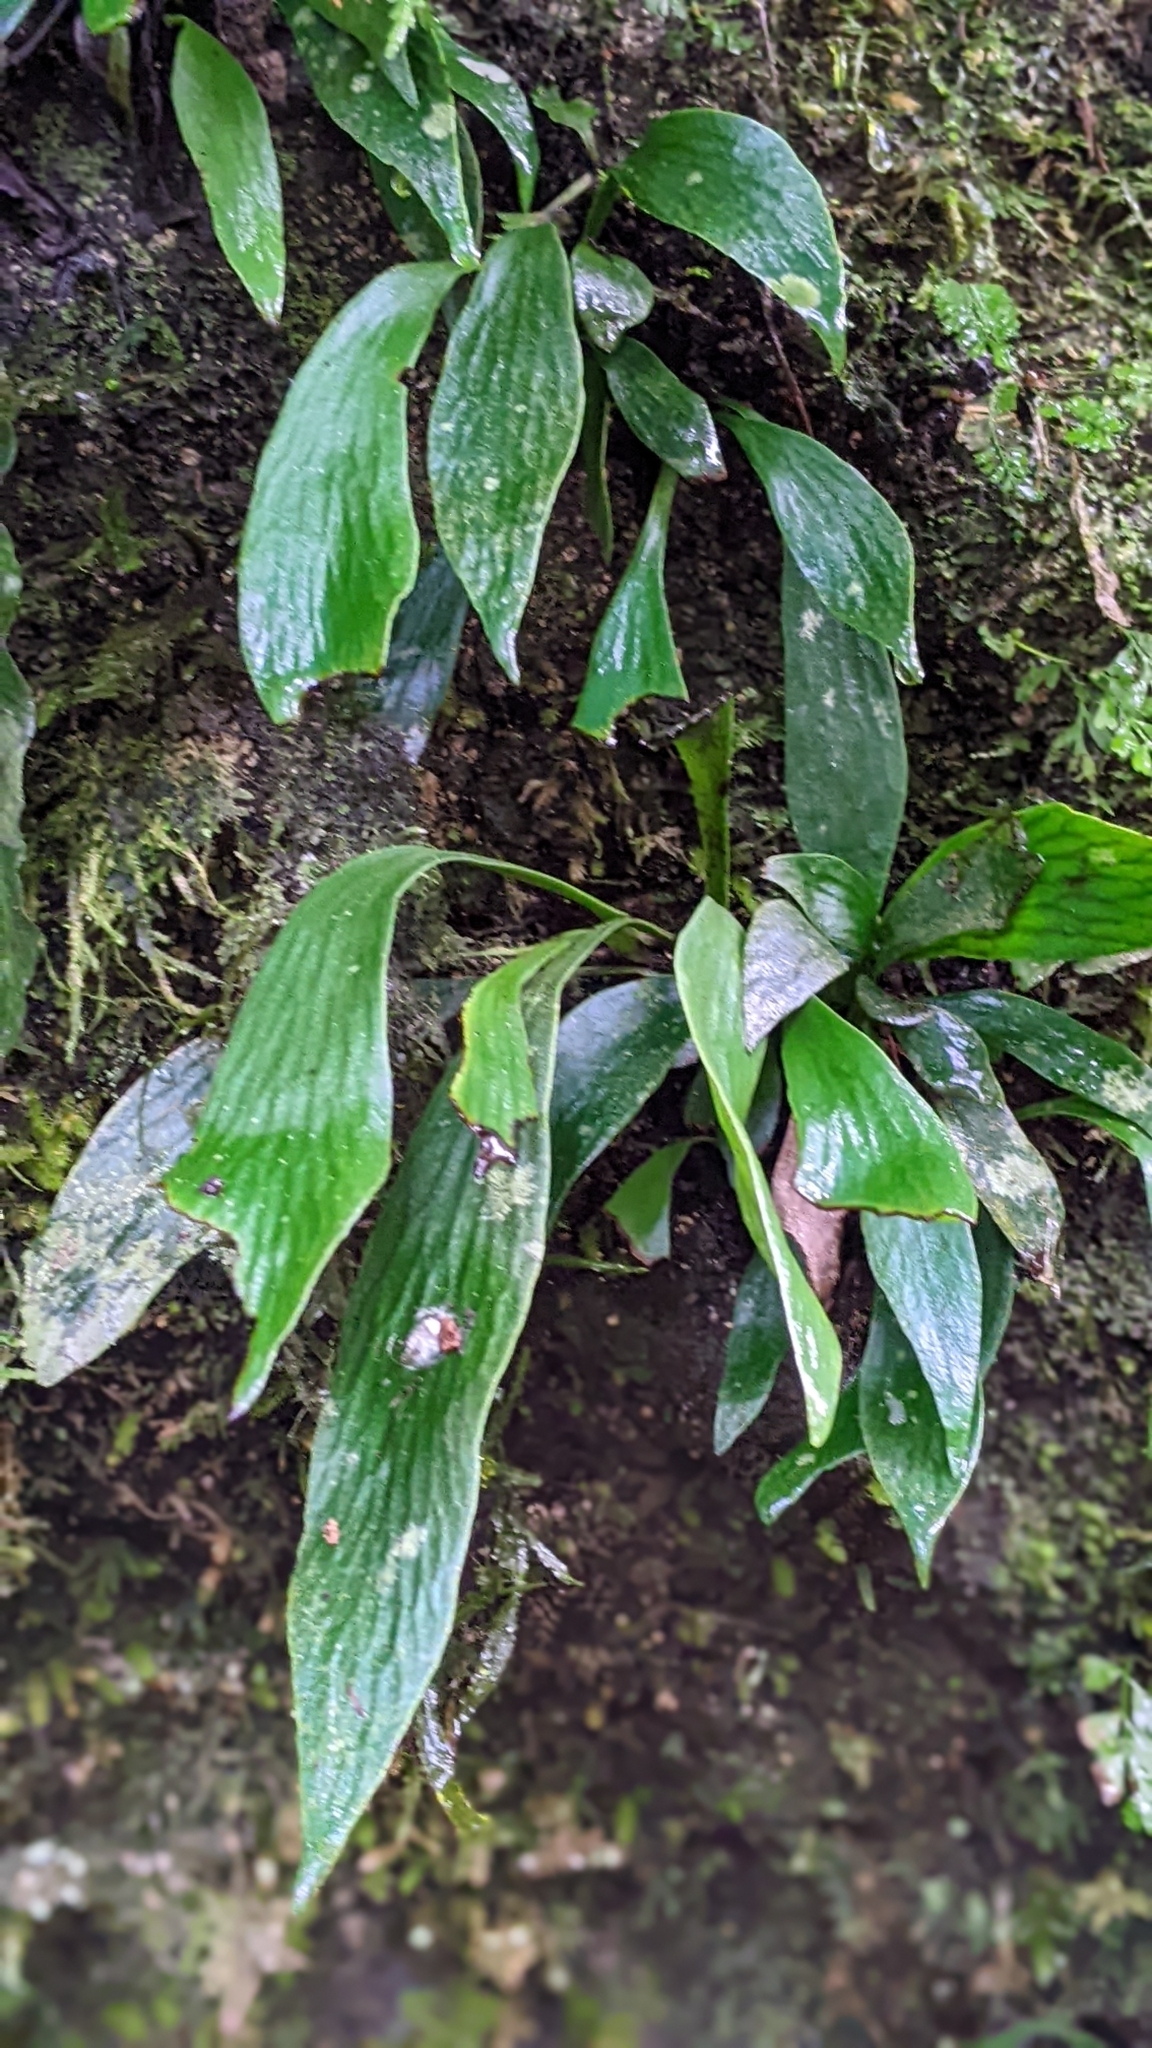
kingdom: Plantae
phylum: Tracheophyta
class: Polypodiopsida
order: Polypodiales
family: Pteridaceae
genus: Antrophyum
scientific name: Antrophyum formosanum
